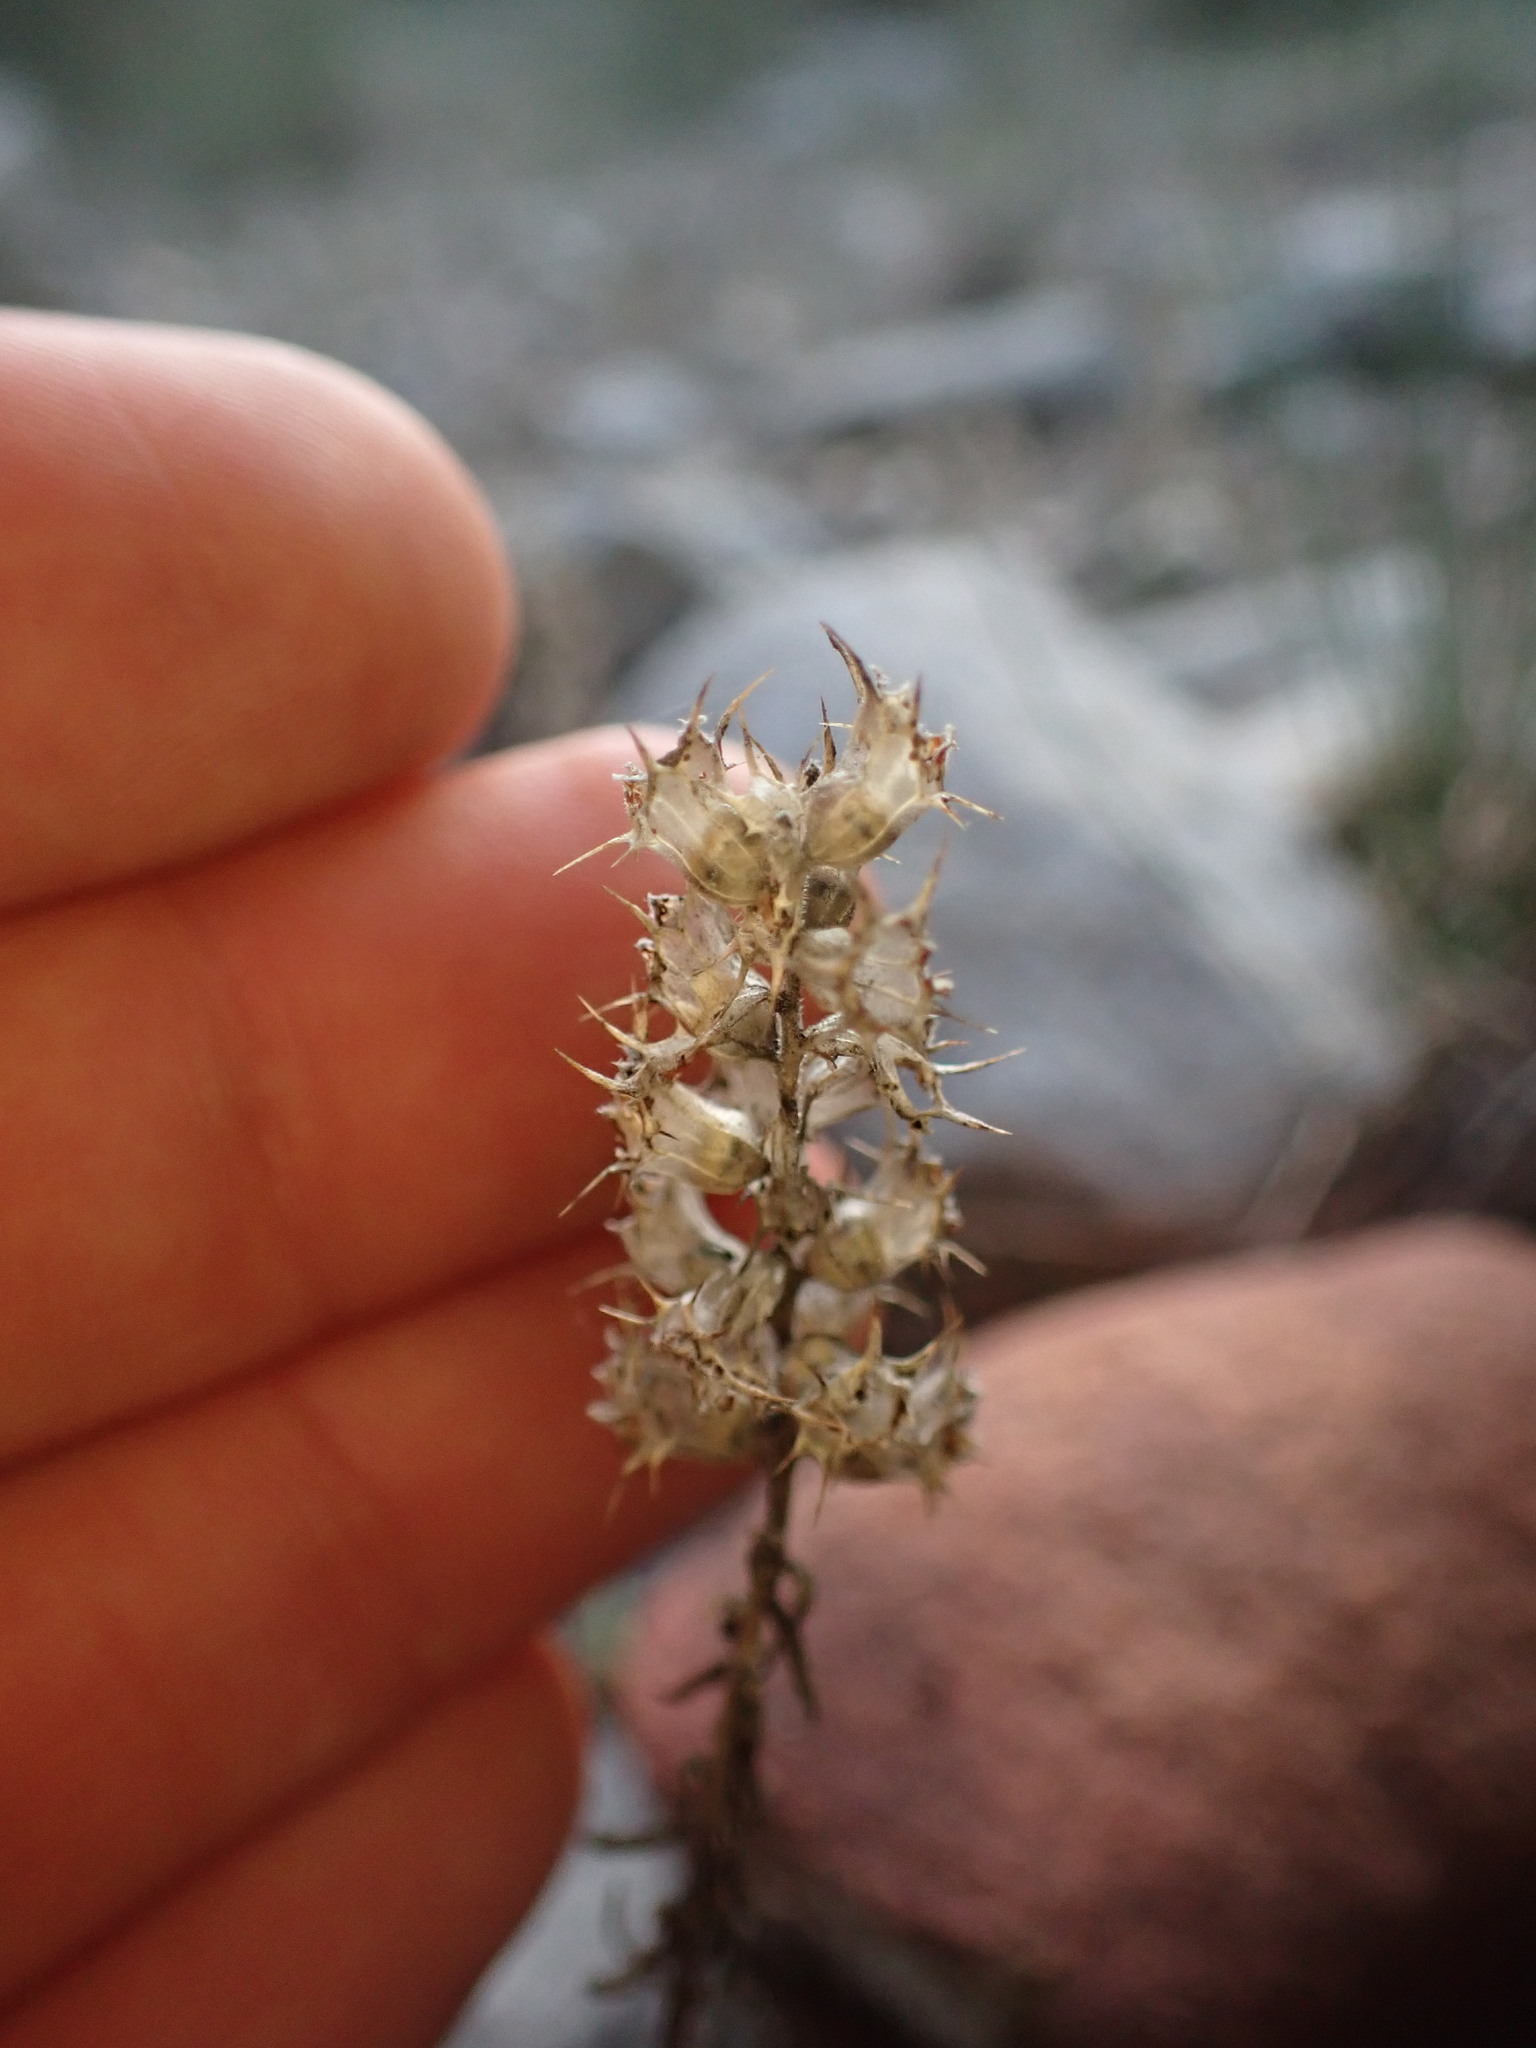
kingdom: Plantae
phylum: Tracheophyta
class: Magnoliopsida
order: Ericales
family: Primulaceae
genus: Coris
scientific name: Coris monspeliensis
